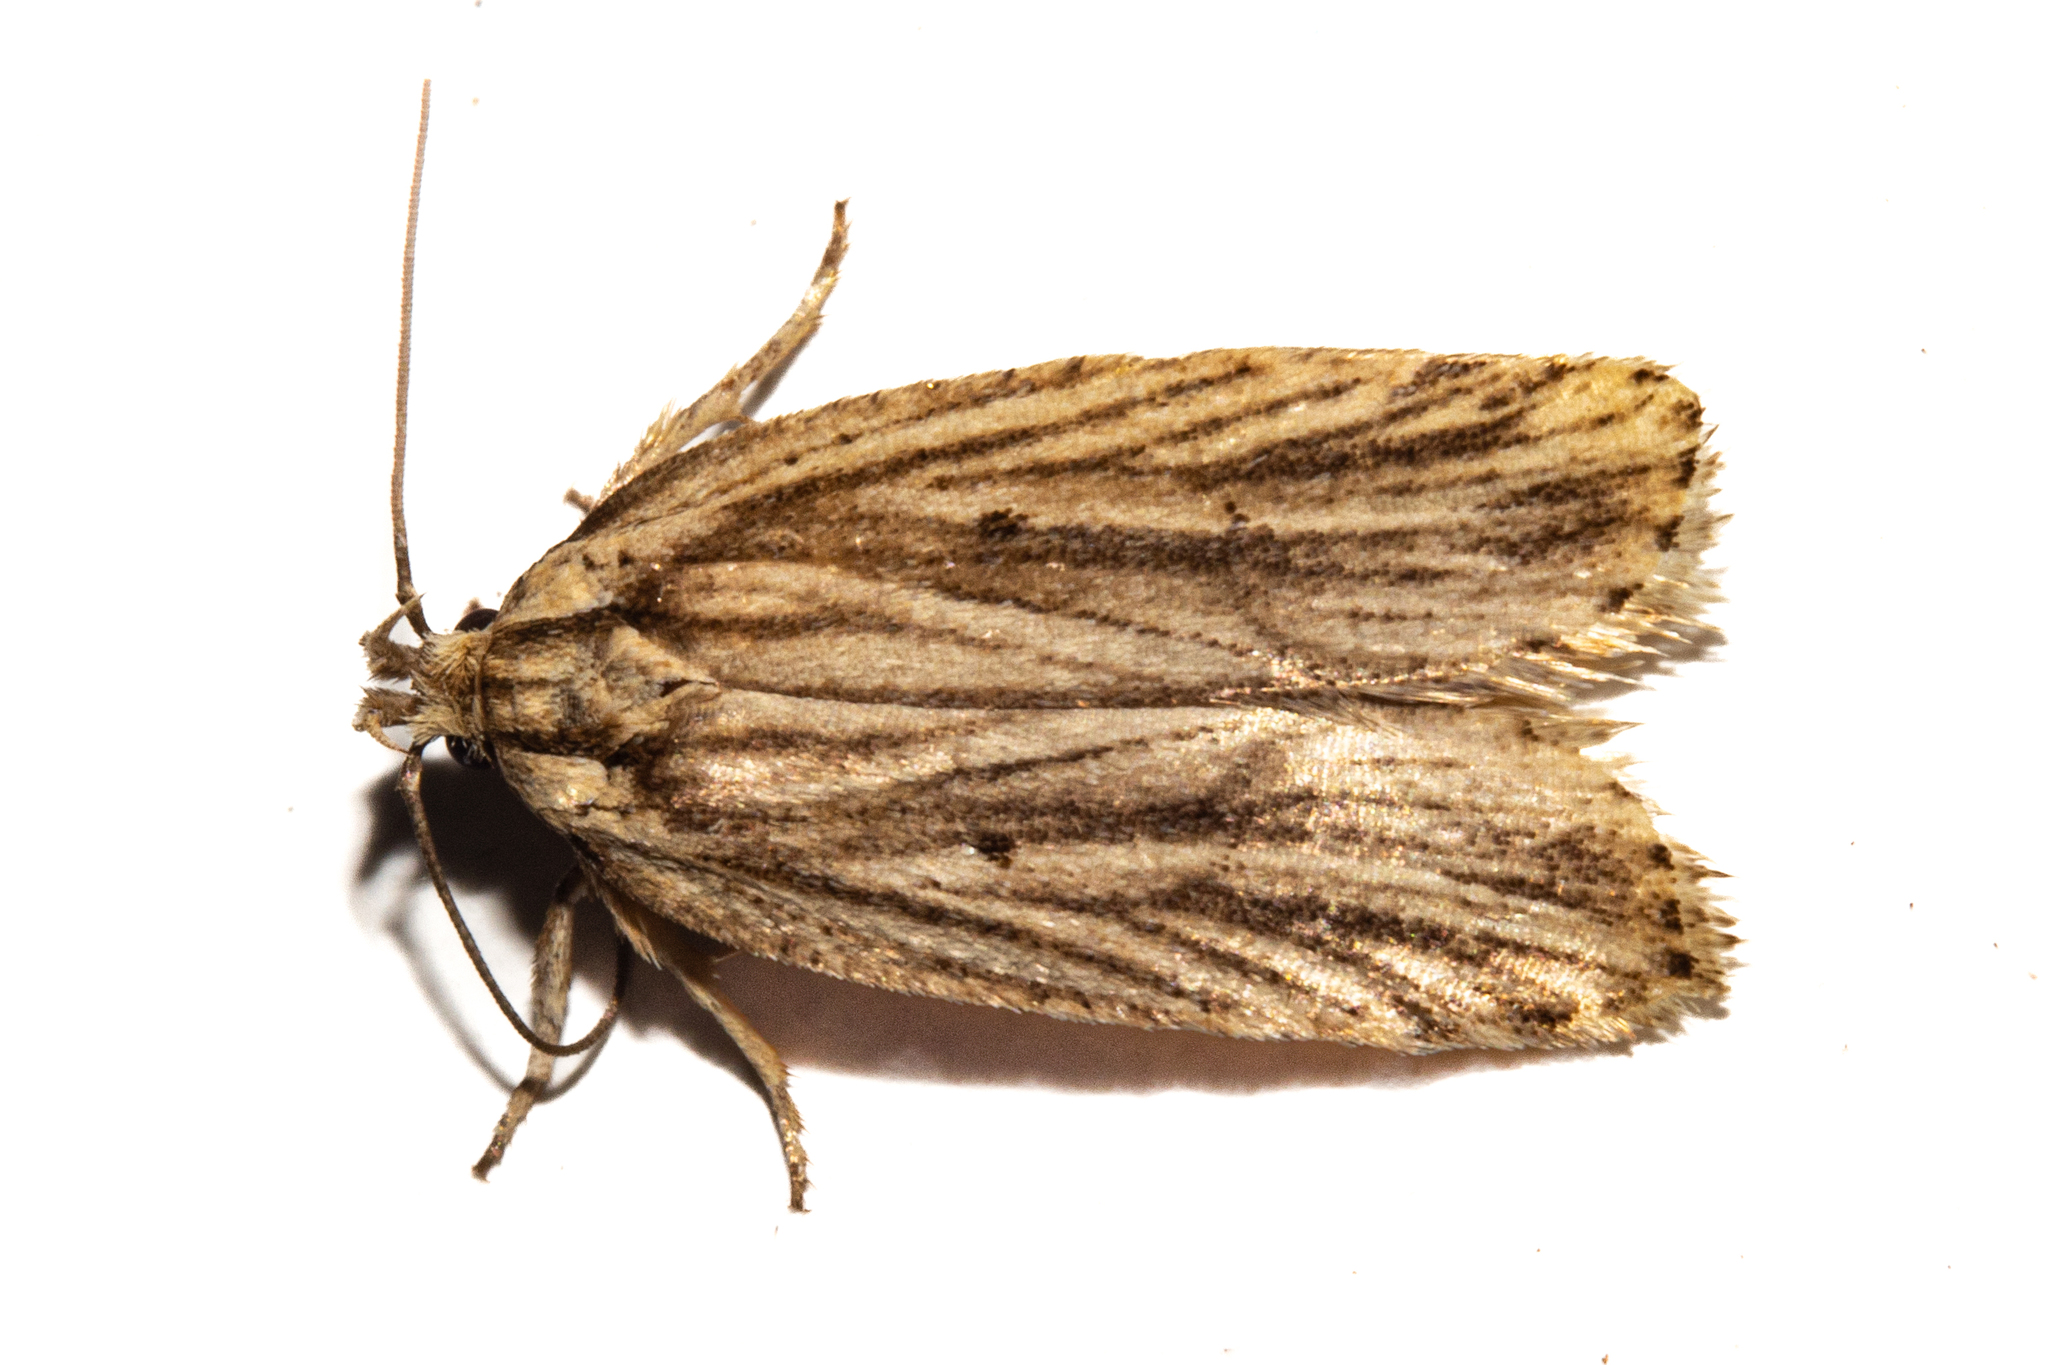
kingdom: Animalia
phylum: Arthropoda
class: Insecta
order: Lepidoptera
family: Depressariidae
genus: Agonopterix
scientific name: Agonopterix
